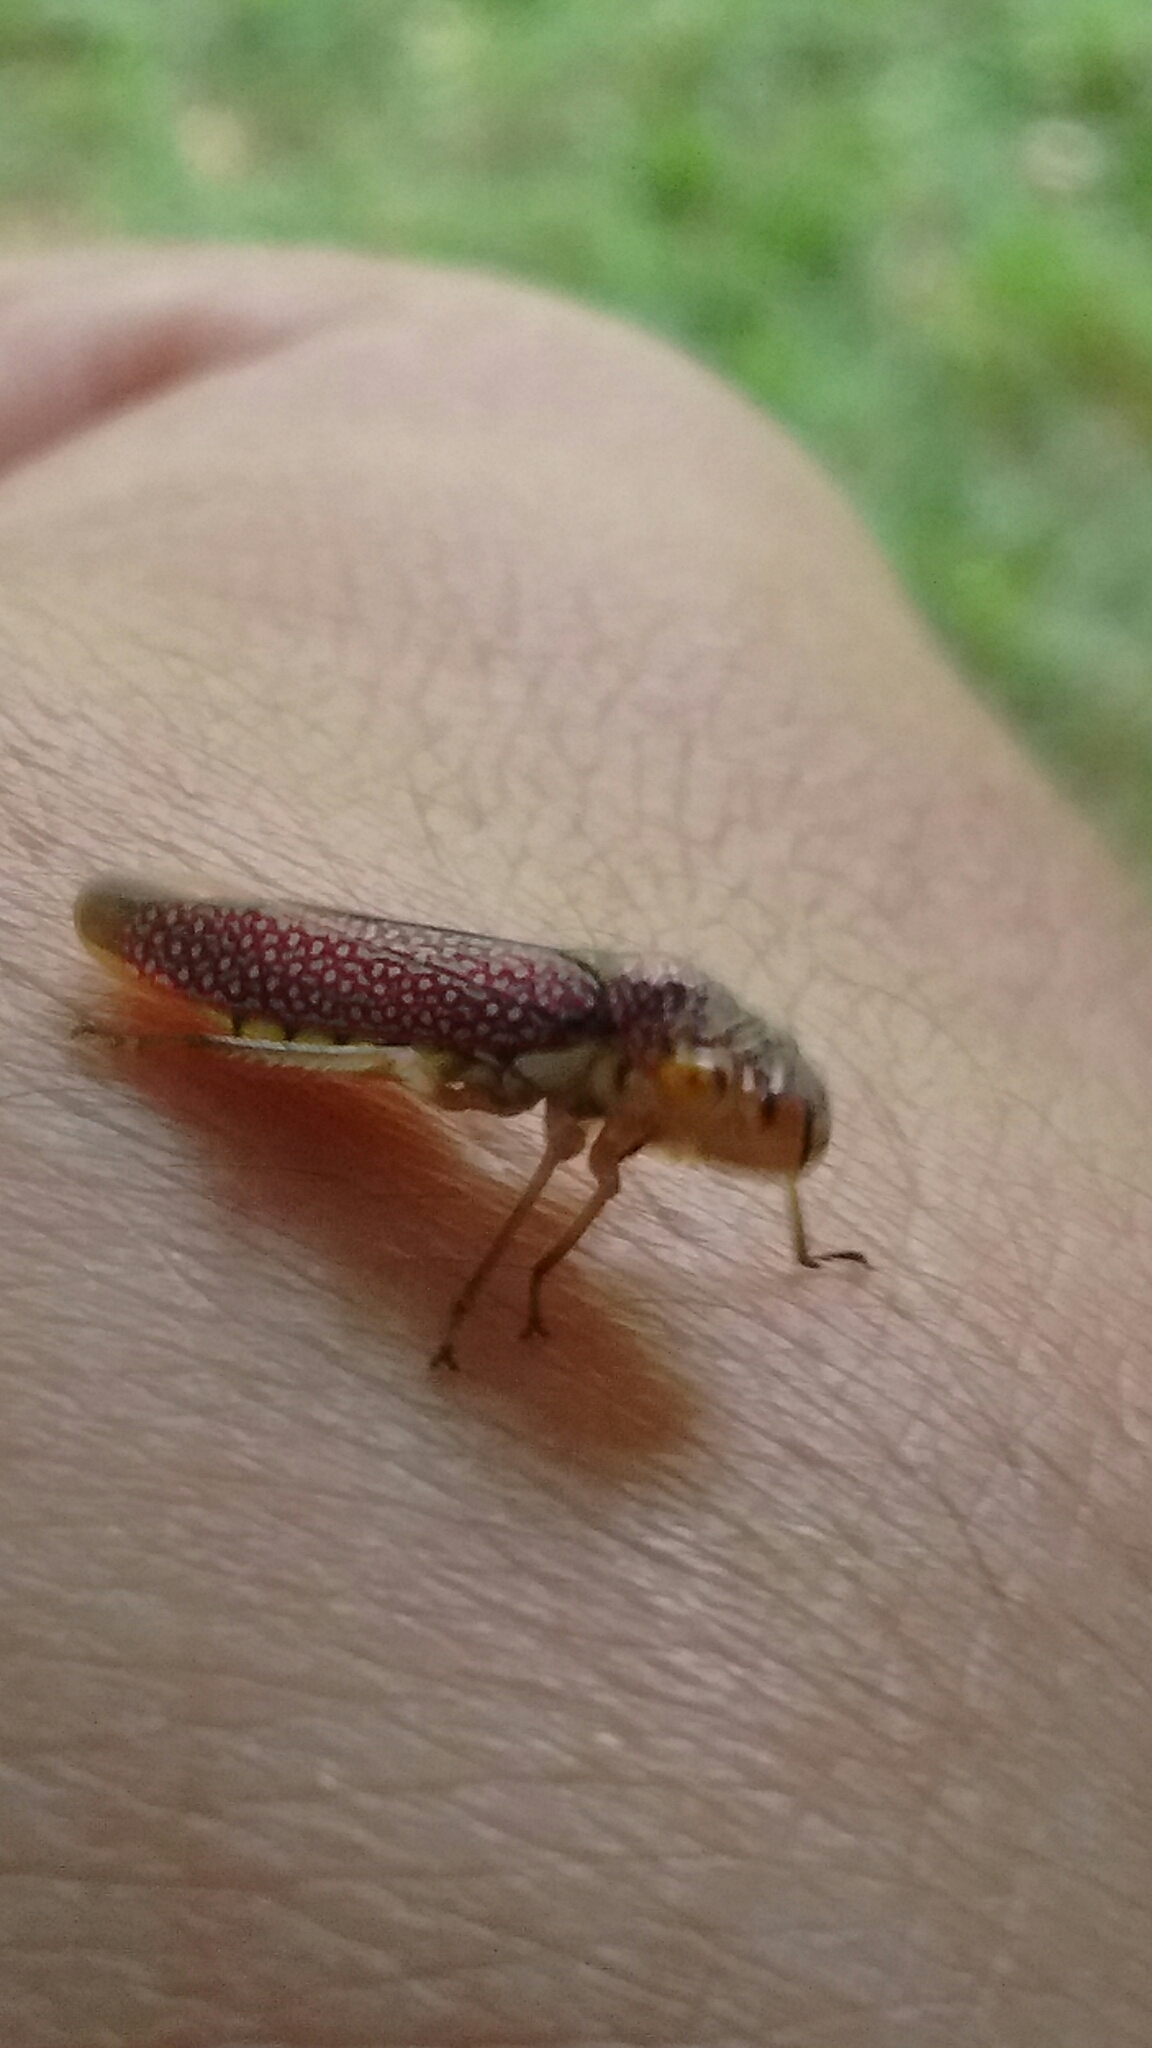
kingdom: Animalia
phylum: Arthropoda
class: Insecta
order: Hemiptera
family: Cicadellidae
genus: Molomea
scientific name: Molomea lineiceps
